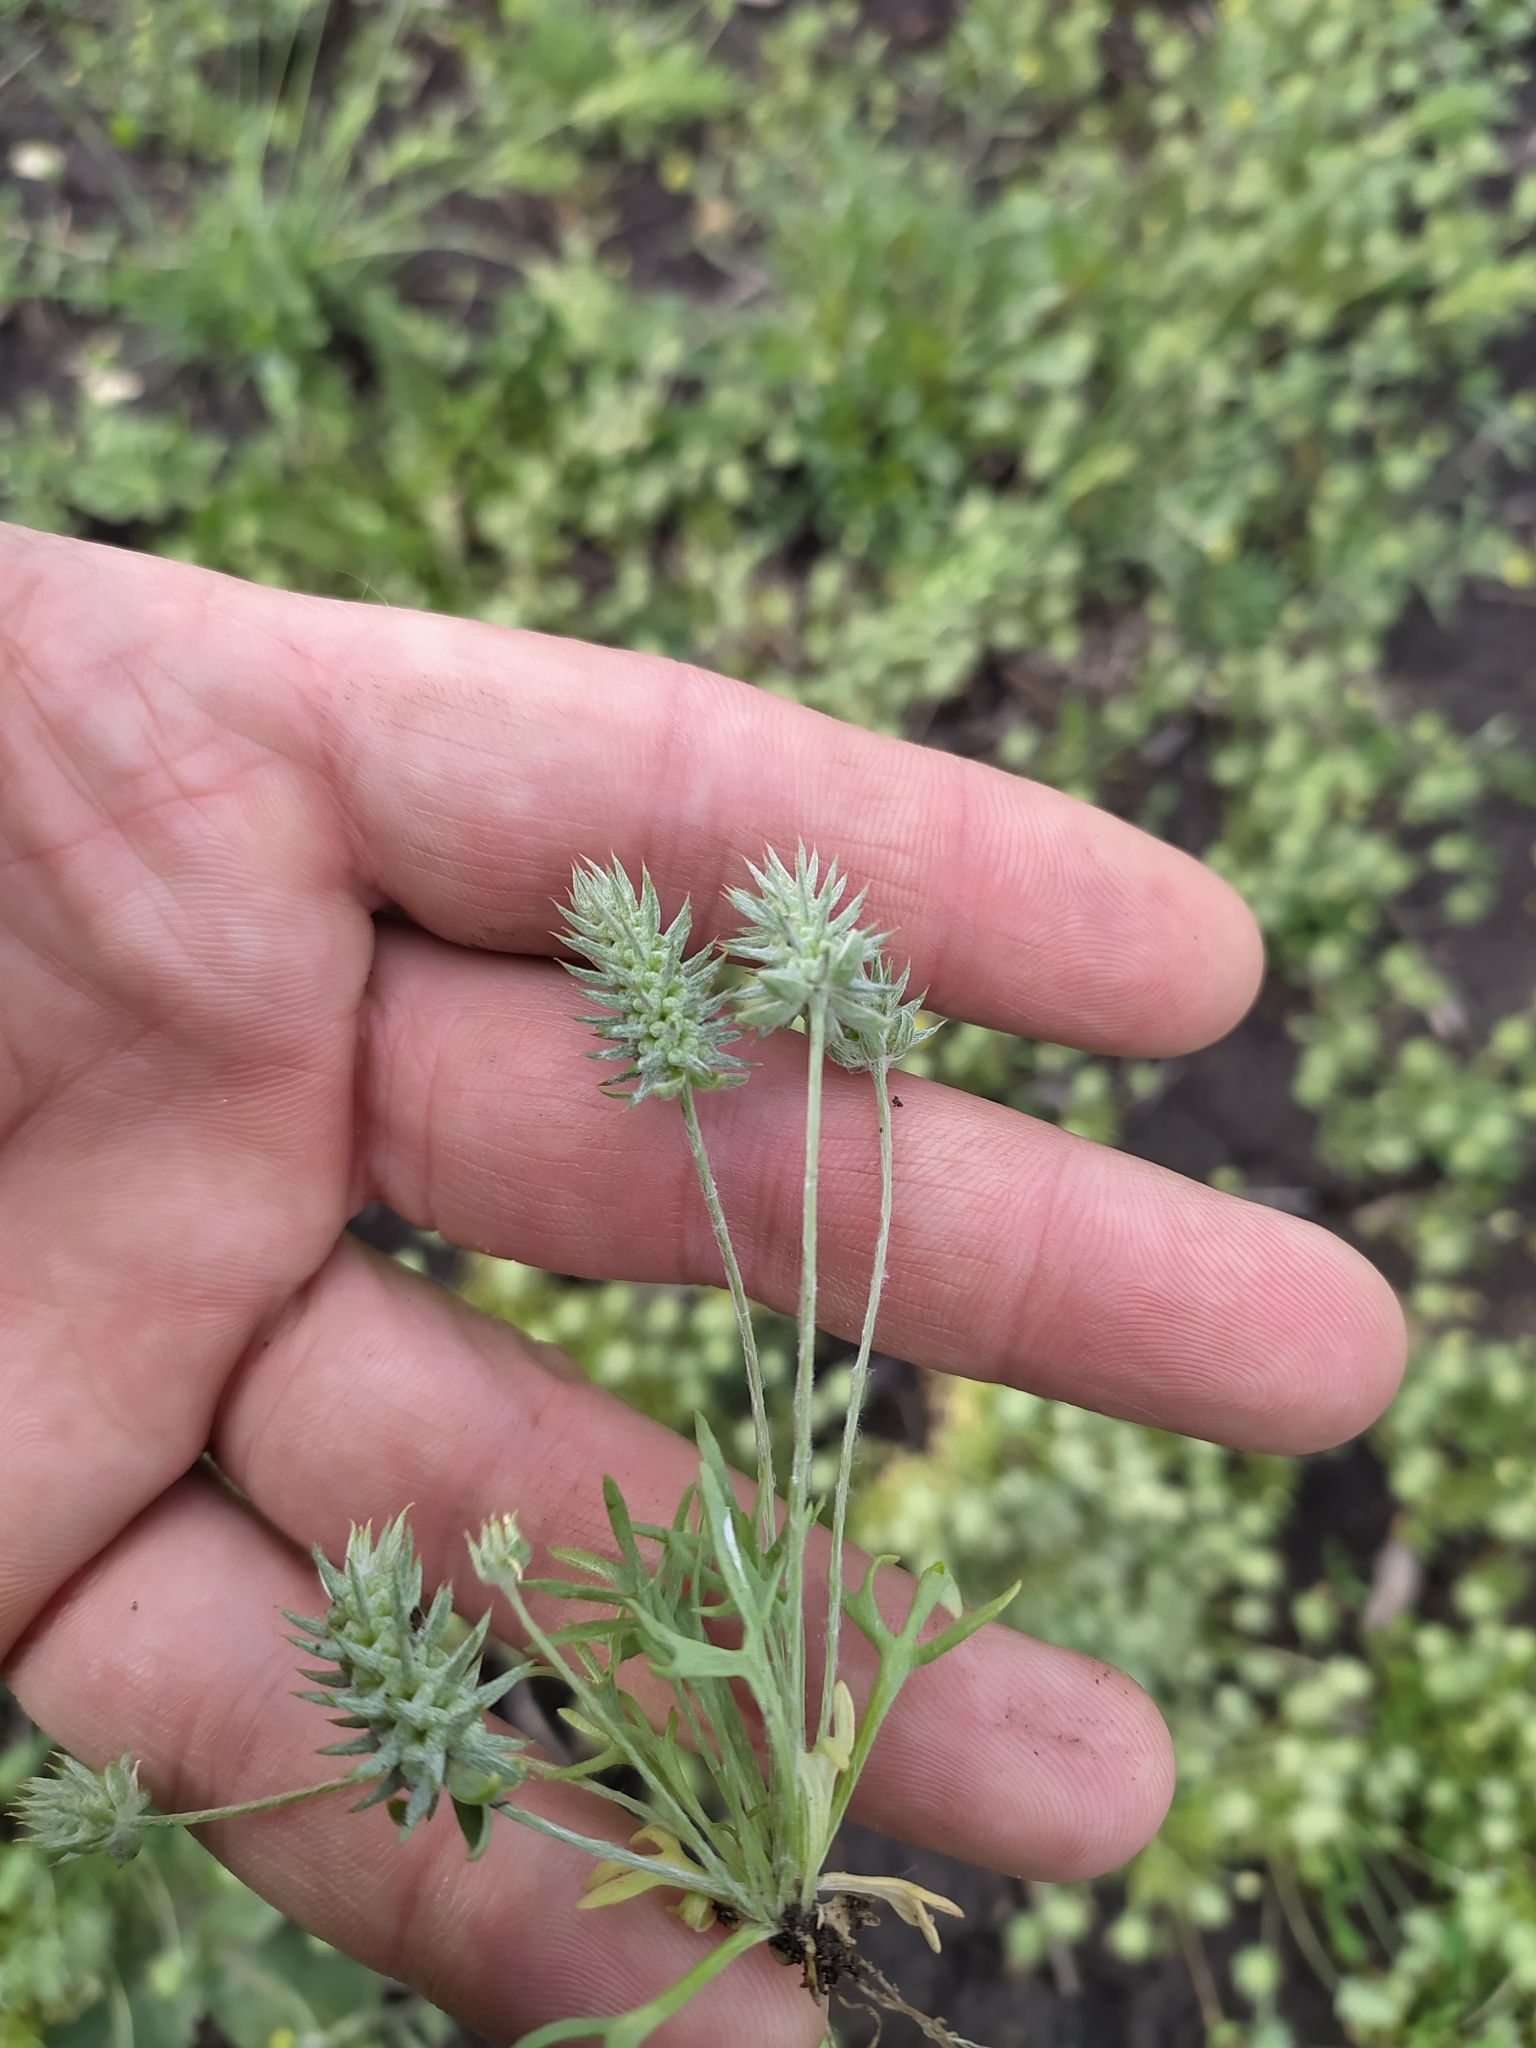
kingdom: Plantae
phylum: Tracheophyta
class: Magnoliopsida
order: Ranunculales
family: Ranunculaceae
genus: Ceratocephala
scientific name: Ceratocephala orthoceras
